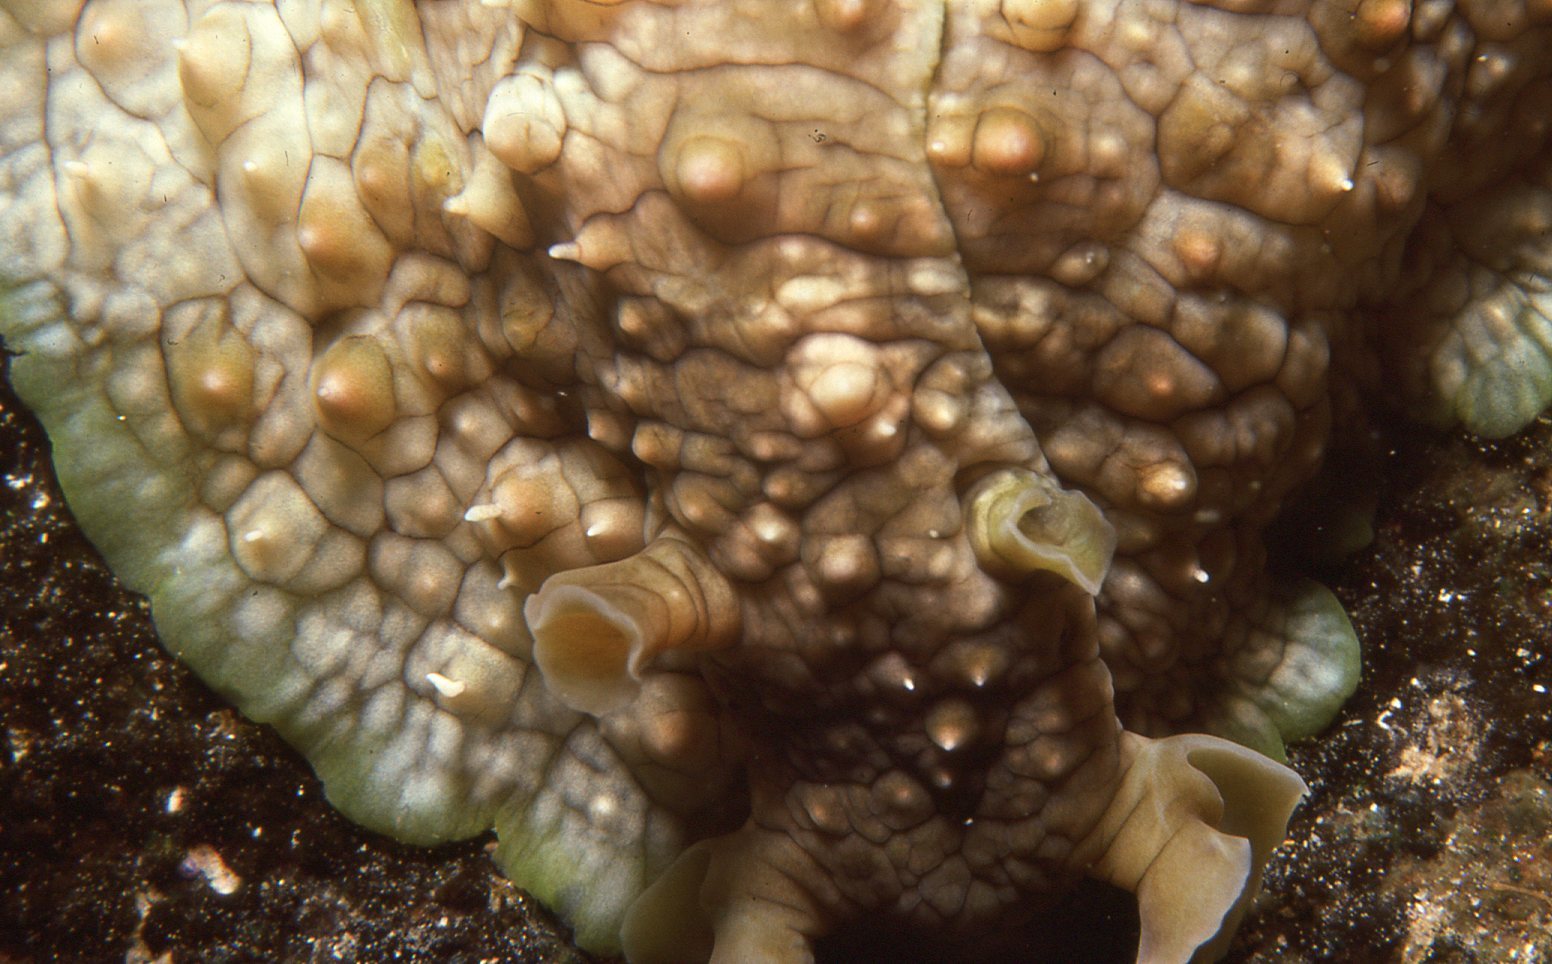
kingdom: Animalia
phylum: Mollusca
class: Gastropoda
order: Aplysiida
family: Aplysiidae
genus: Dolabrifera
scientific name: Dolabrifera brazieri
